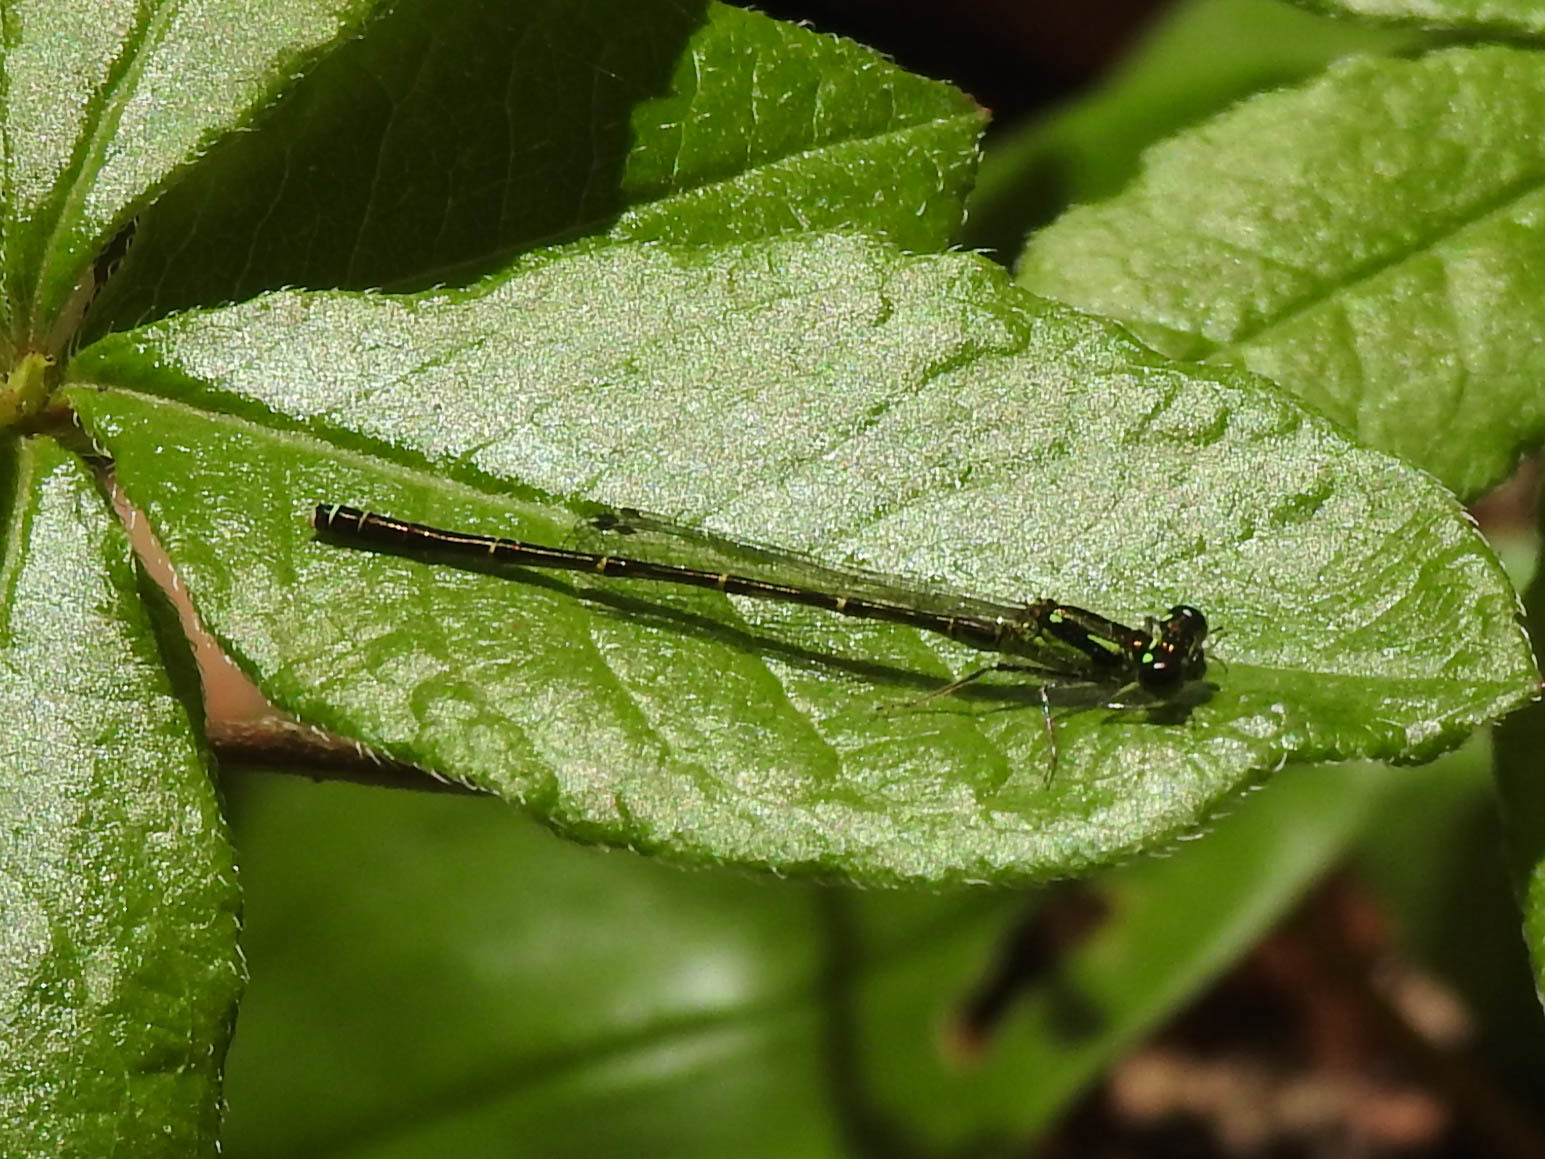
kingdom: Animalia
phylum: Arthropoda
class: Insecta
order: Odonata
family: Coenagrionidae
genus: Ischnura
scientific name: Ischnura posita
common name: Fragile forktail
